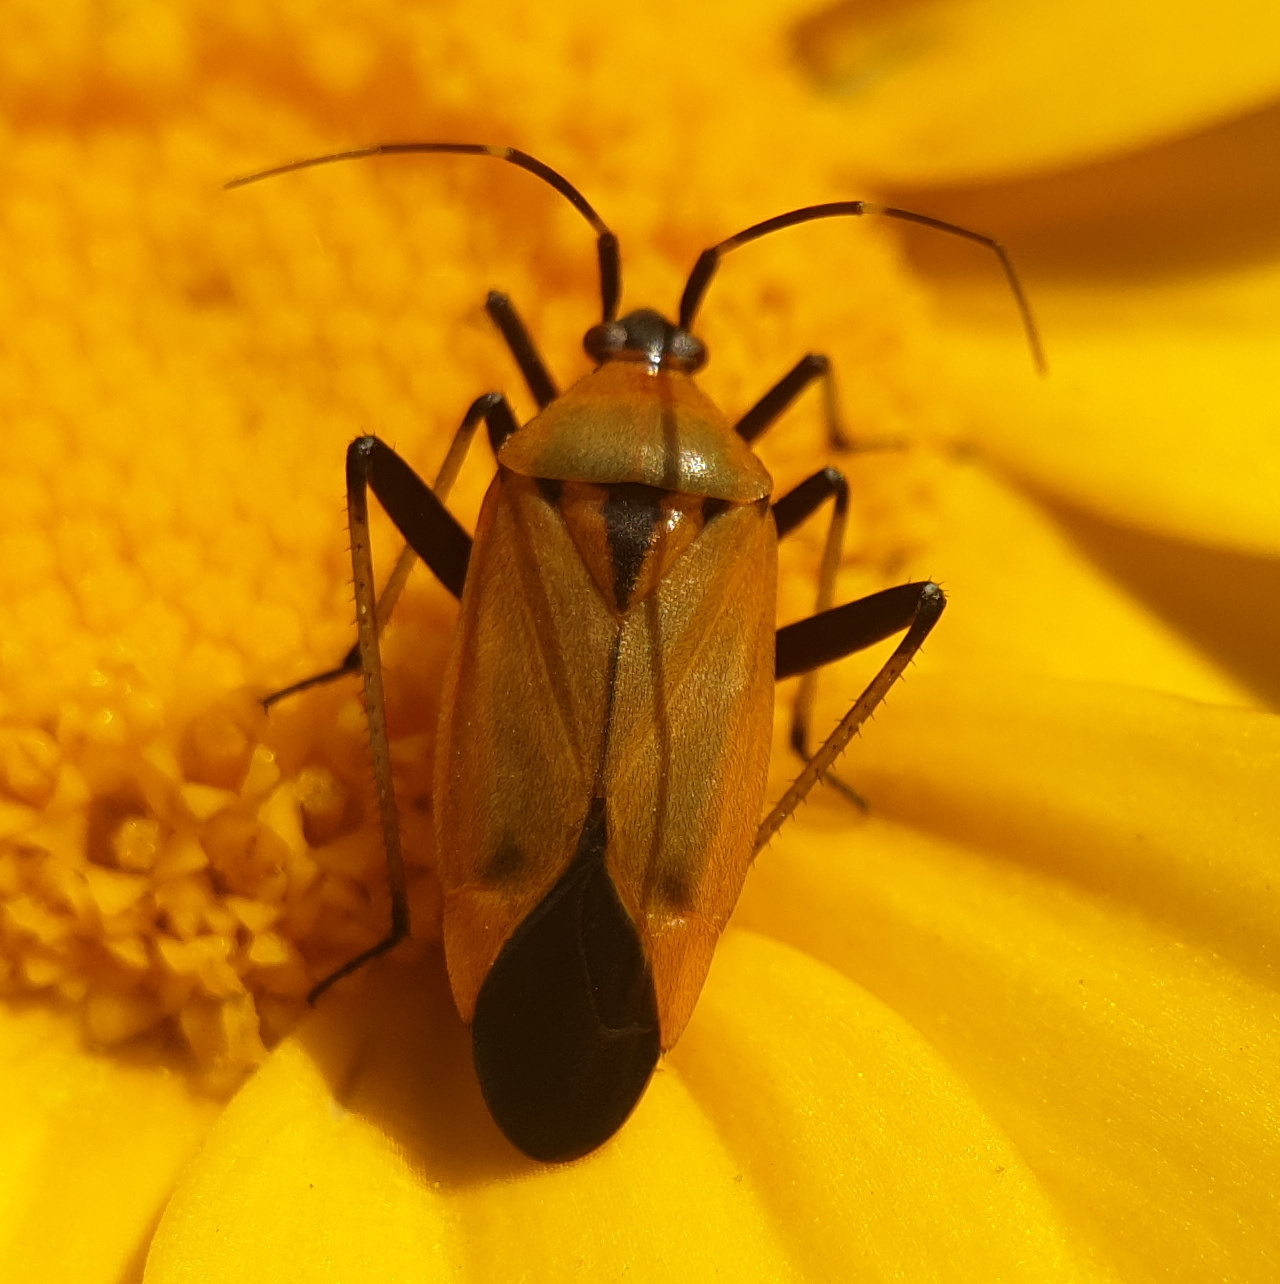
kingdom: Animalia
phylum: Arthropoda
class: Insecta
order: Hemiptera
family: Miridae
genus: Calocoris
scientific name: Calocoris nemoralis
